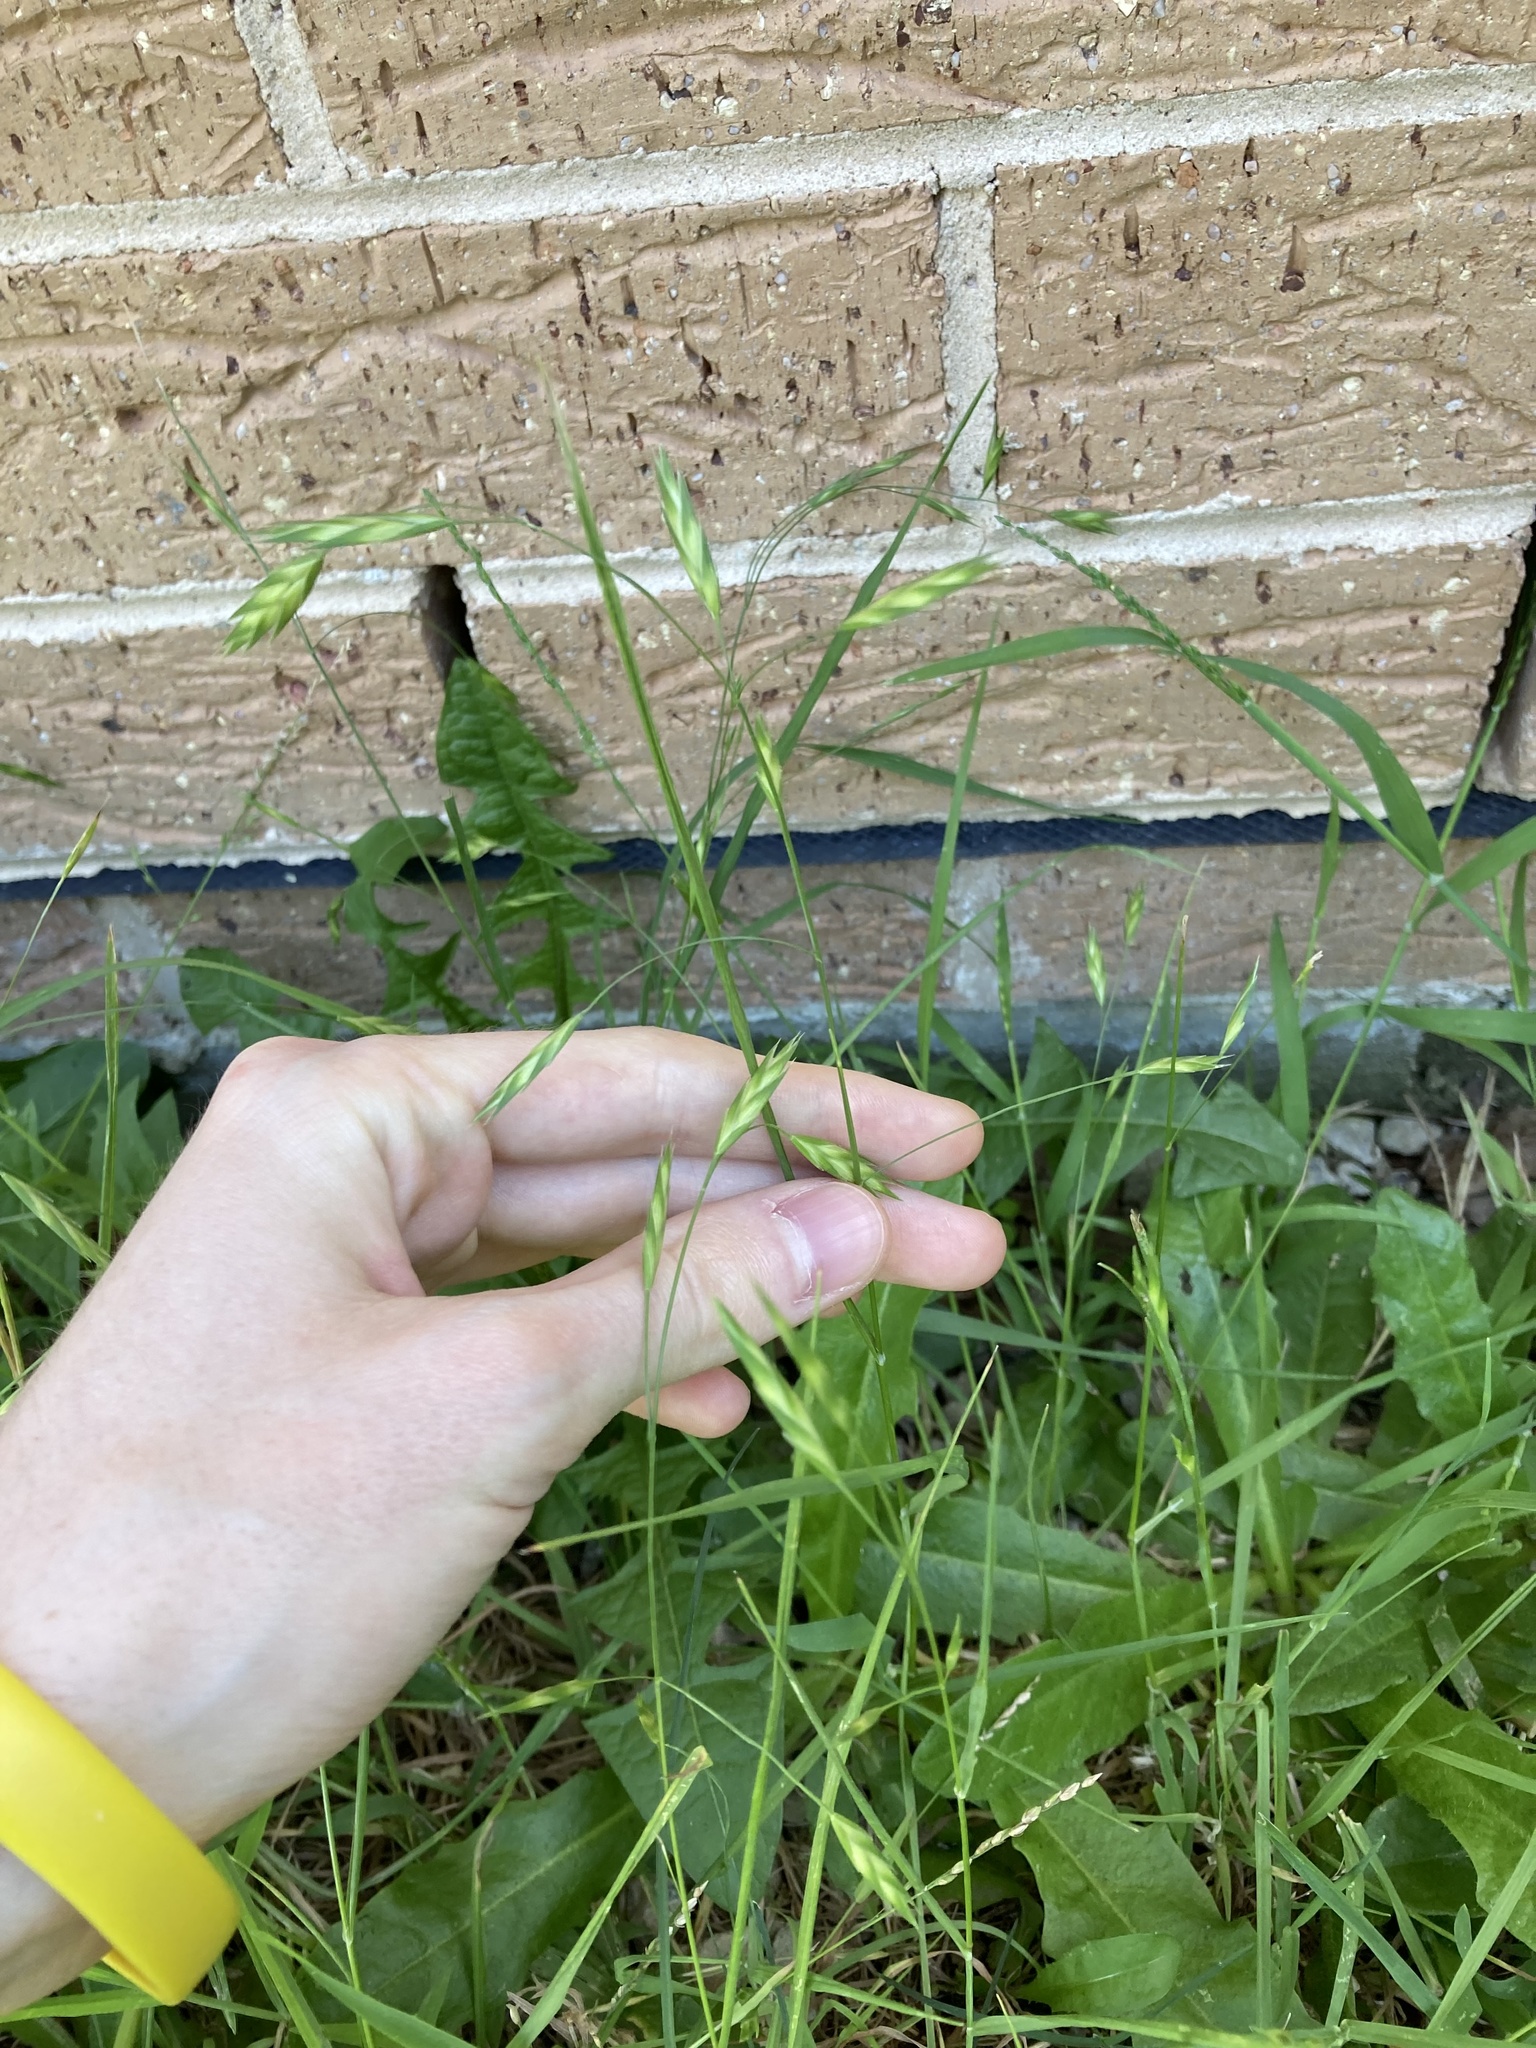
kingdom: Plantae
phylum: Tracheophyta
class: Liliopsida
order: Poales
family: Poaceae
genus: Bromus
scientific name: Bromus catharticus
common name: Rescuegrass
